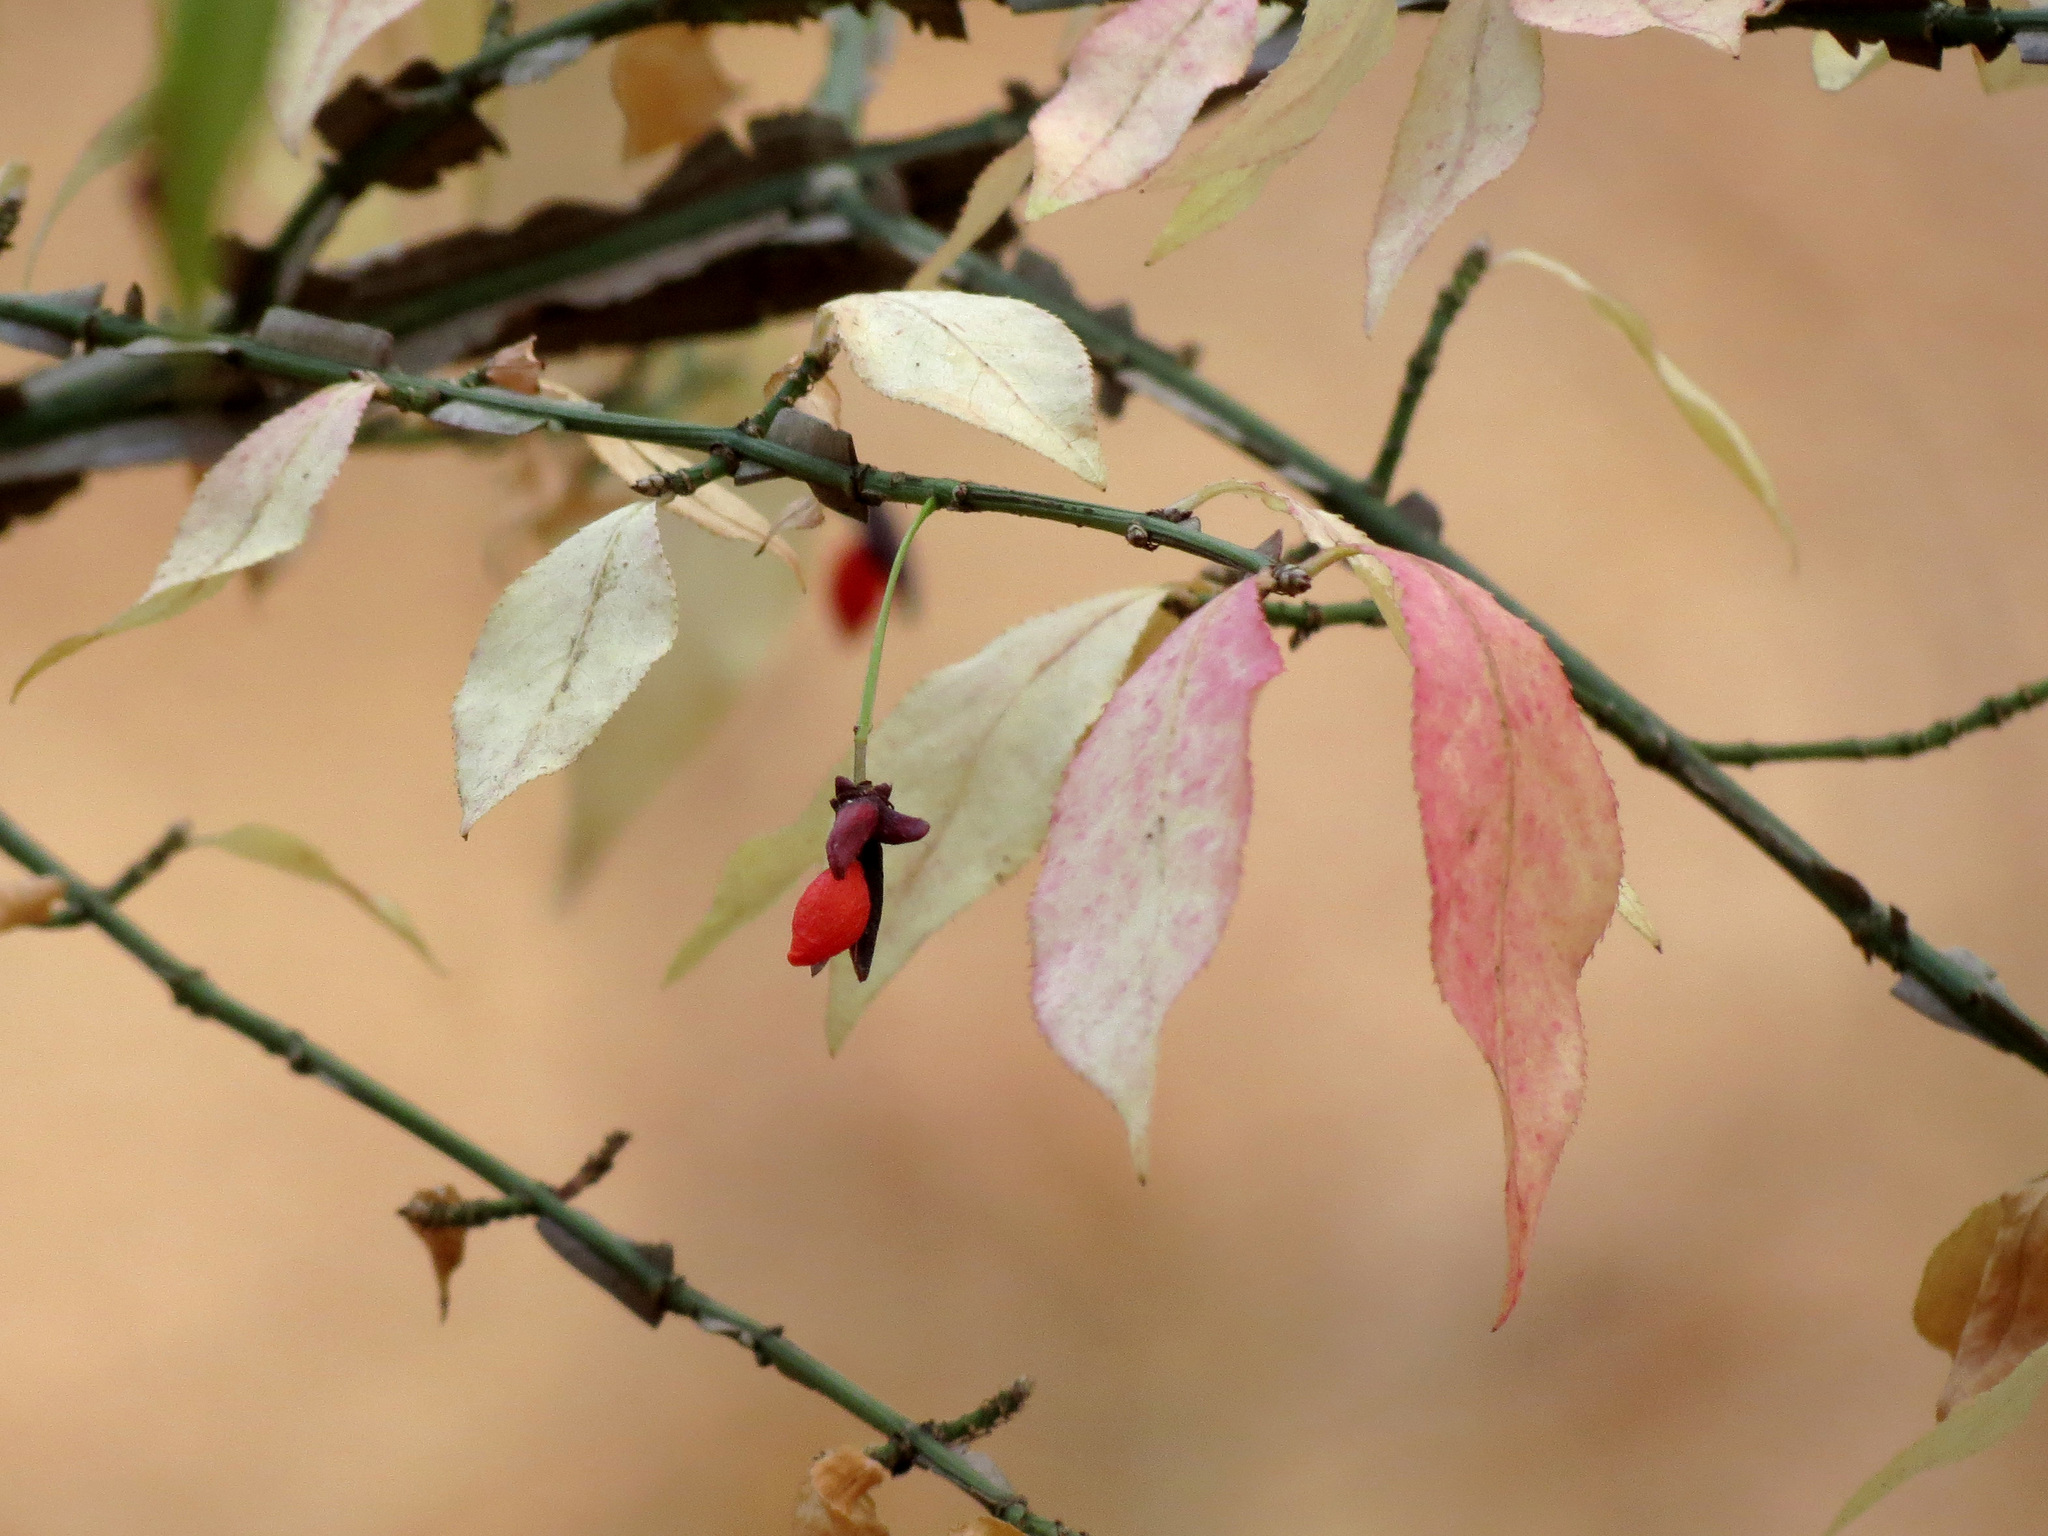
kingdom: Plantae
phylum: Tracheophyta
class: Magnoliopsida
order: Celastrales
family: Celastraceae
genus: Euonymus
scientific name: Euonymus alatus
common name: Winged euonymus
